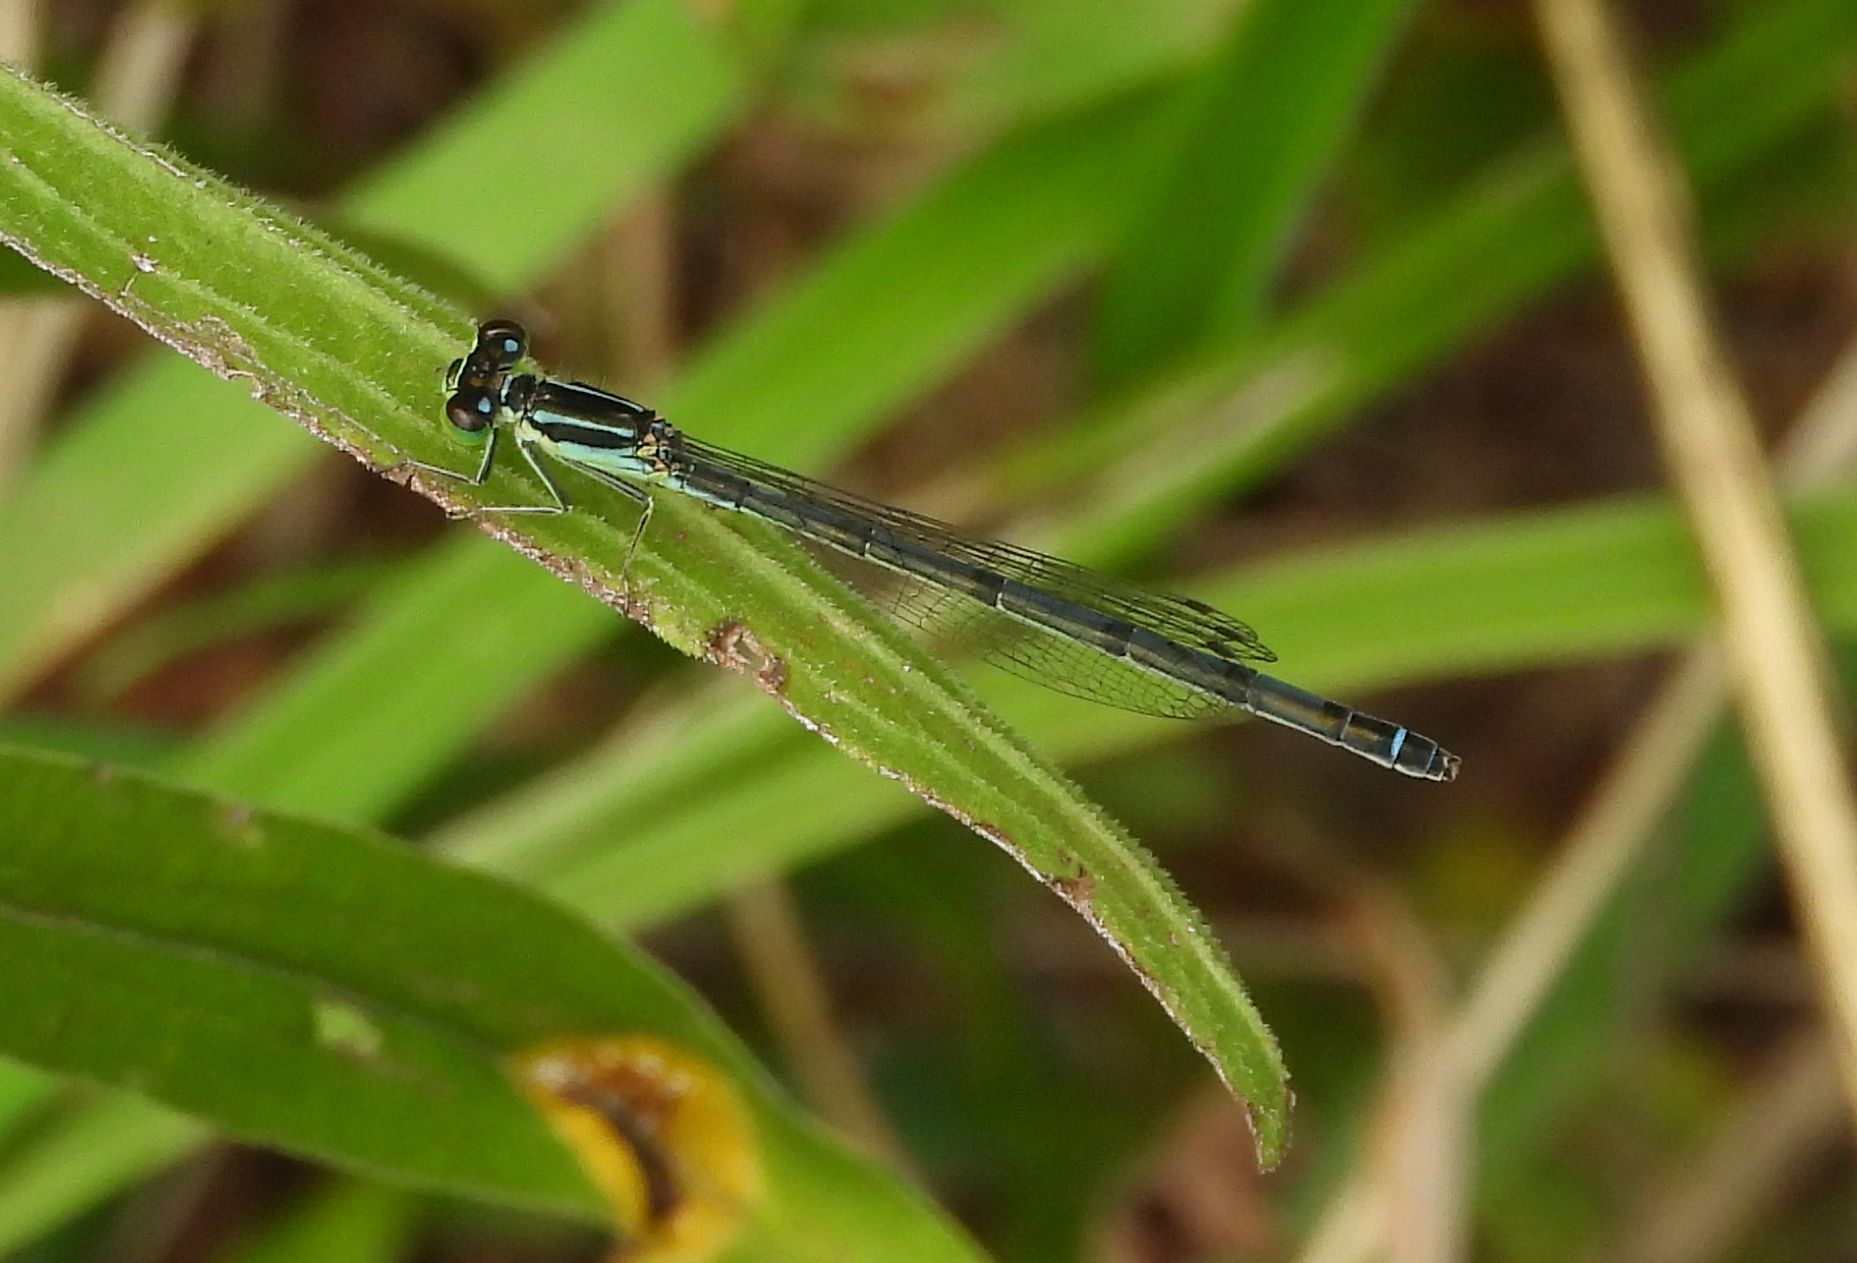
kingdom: Animalia
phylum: Arthropoda
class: Insecta
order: Odonata
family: Coenagrionidae
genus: Ischnura
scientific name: Ischnura verticalis
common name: Eastern forktail
